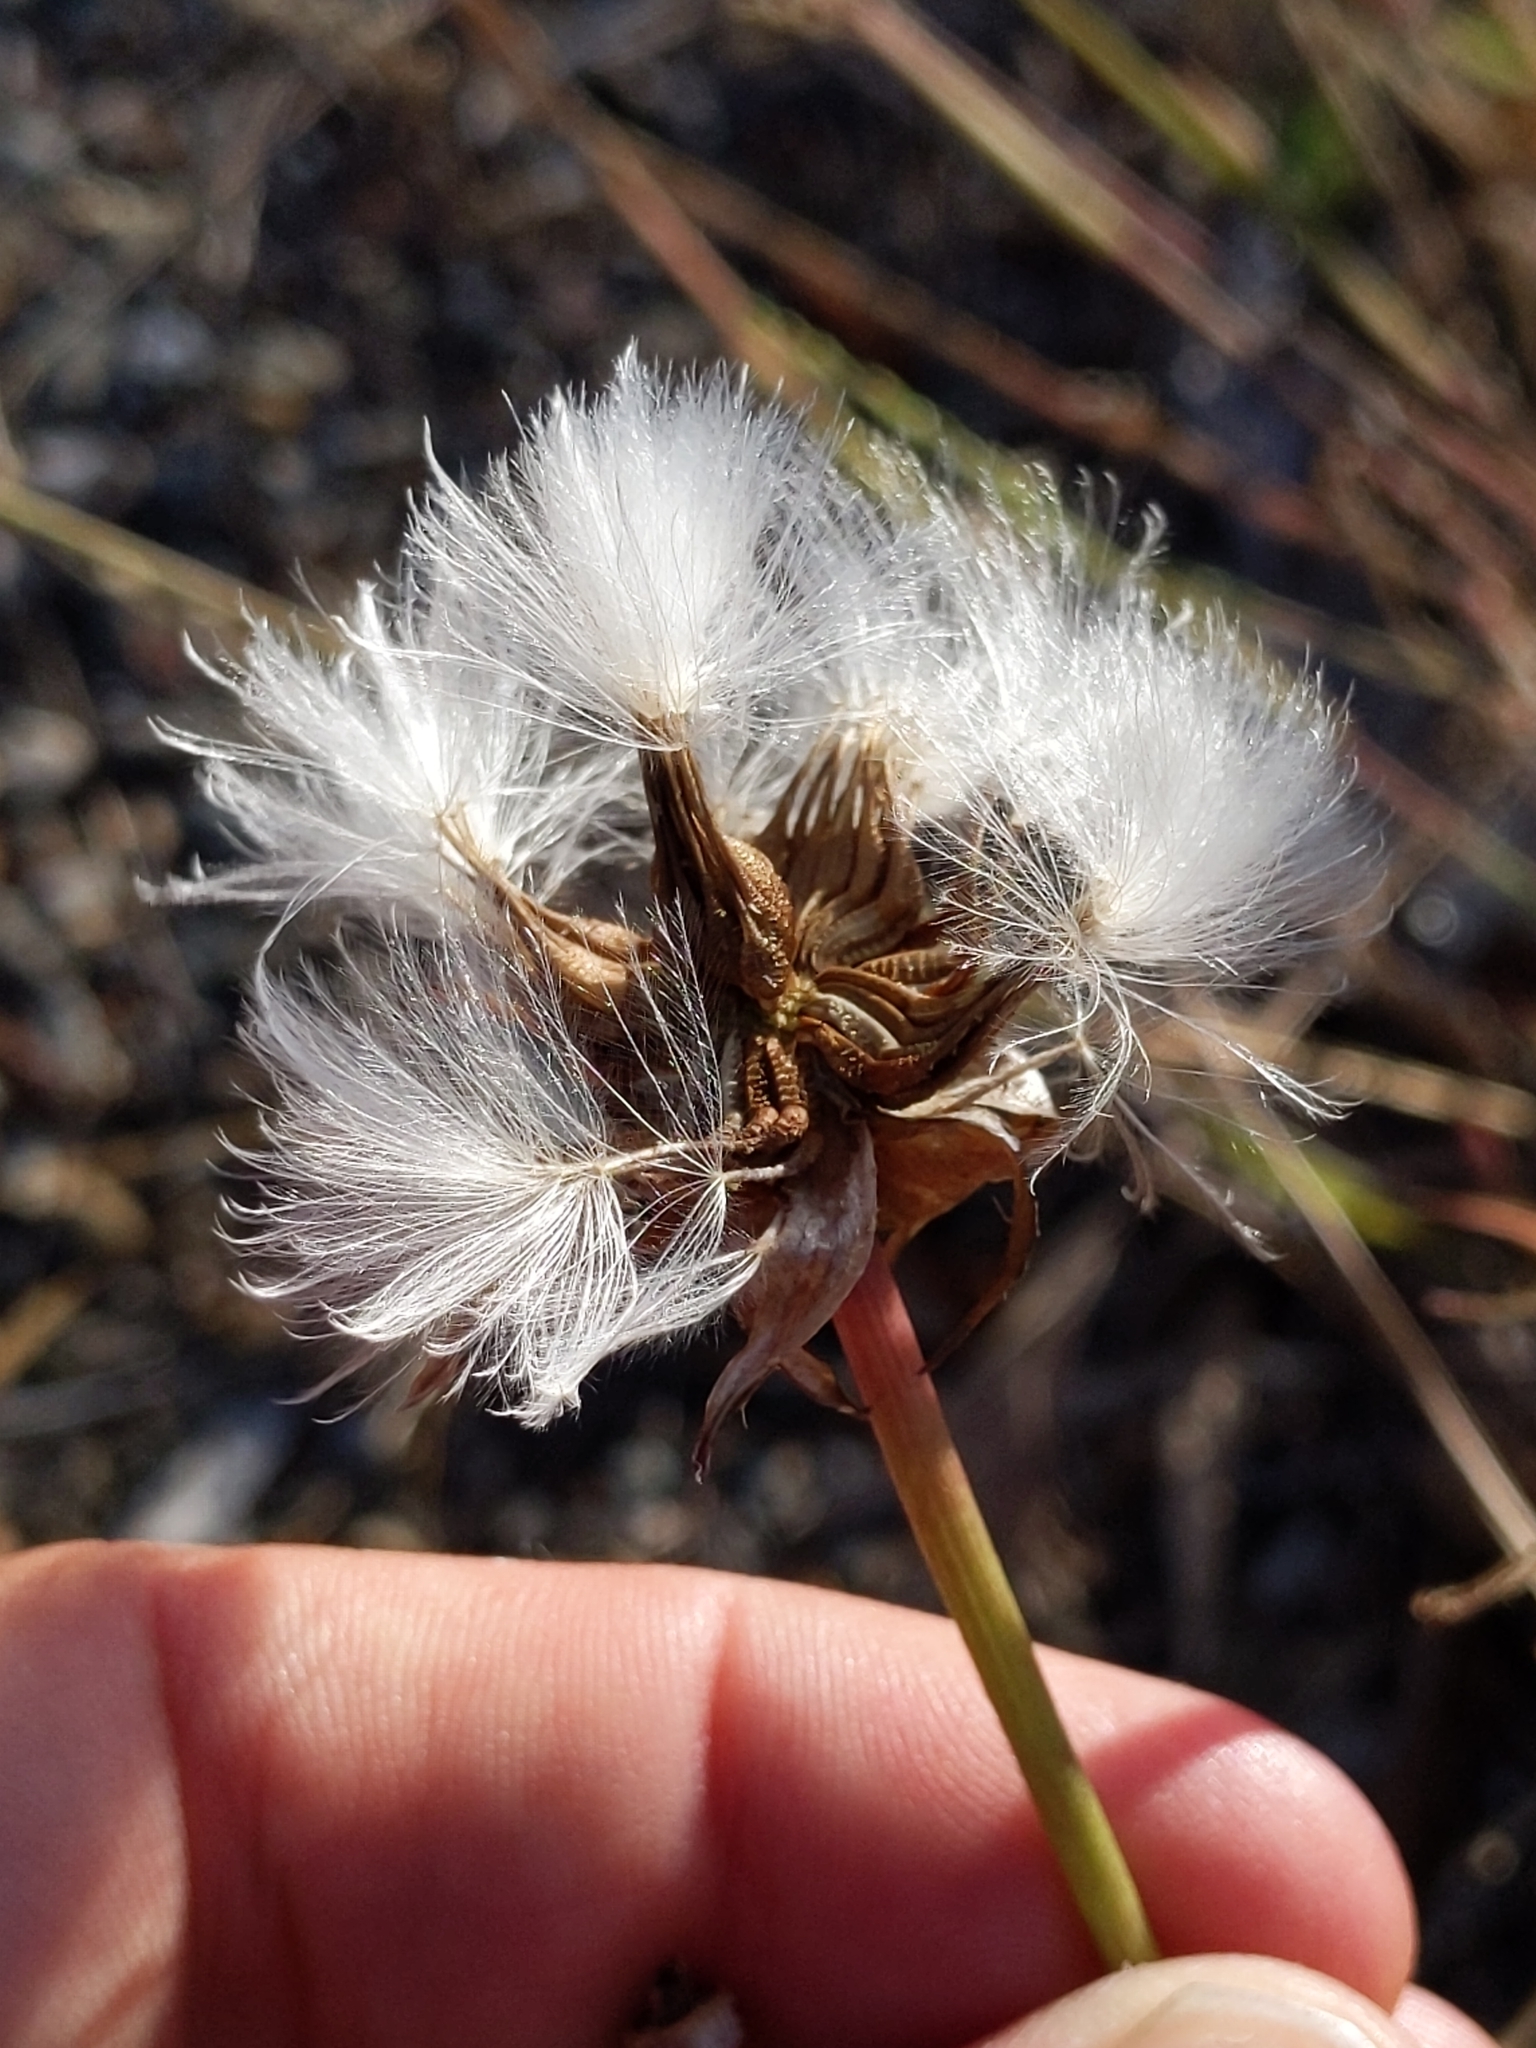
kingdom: Plantae
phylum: Tracheophyta
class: Magnoliopsida
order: Asterales
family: Asteraceae
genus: Urospermum
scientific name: Urospermum picroides
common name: False hawkbit
